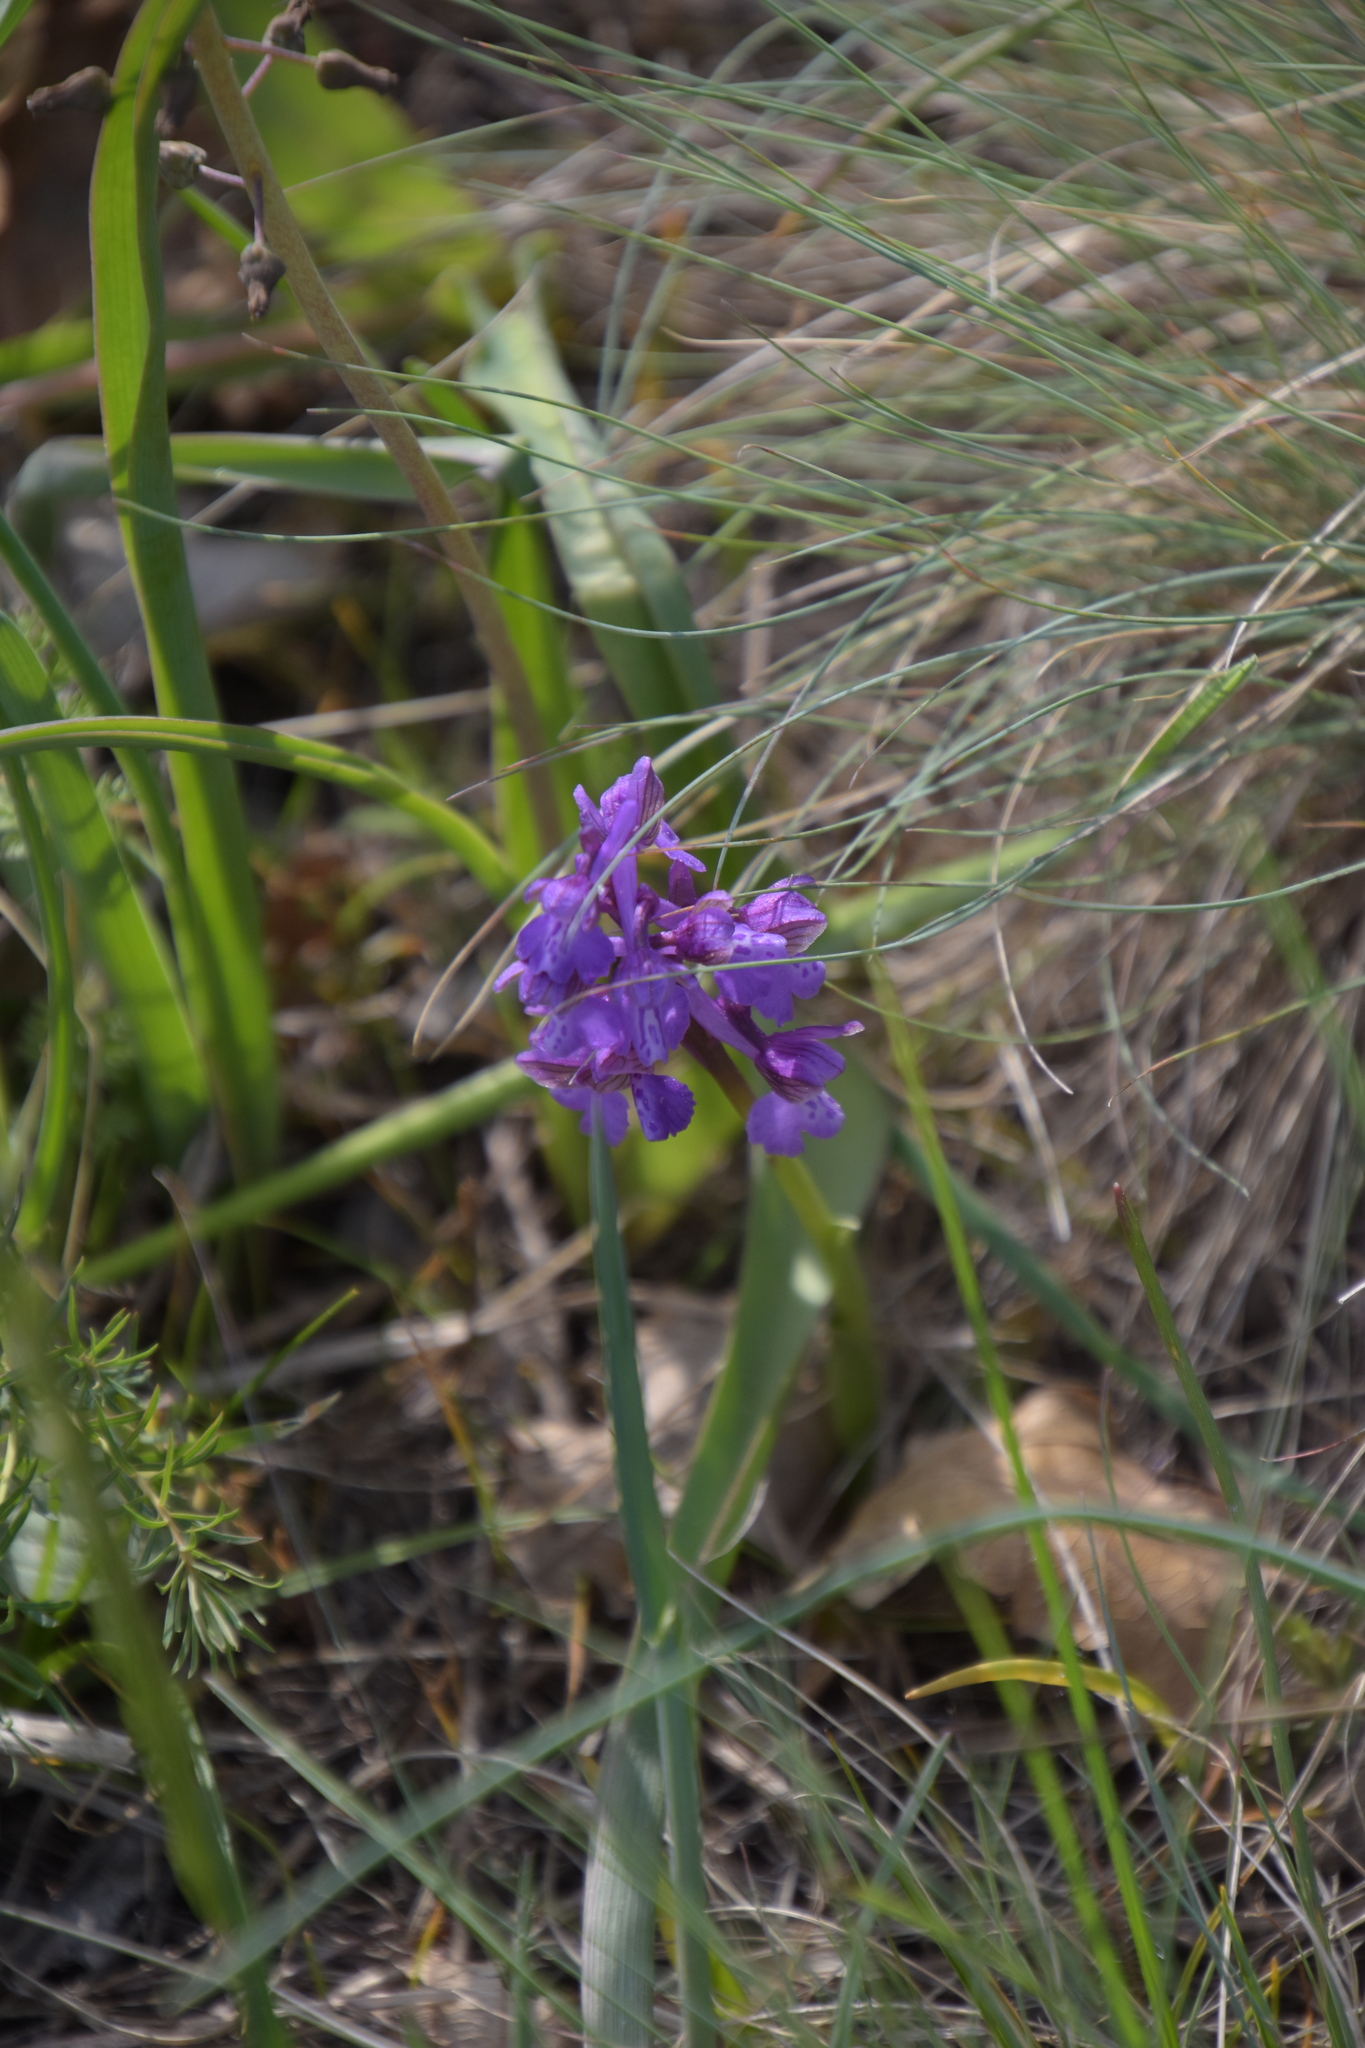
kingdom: Plantae
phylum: Tracheophyta
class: Liliopsida
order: Asparagales
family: Orchidaceae
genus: Anacamptis
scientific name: Anacamptis morio
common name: Green-winged orchid
